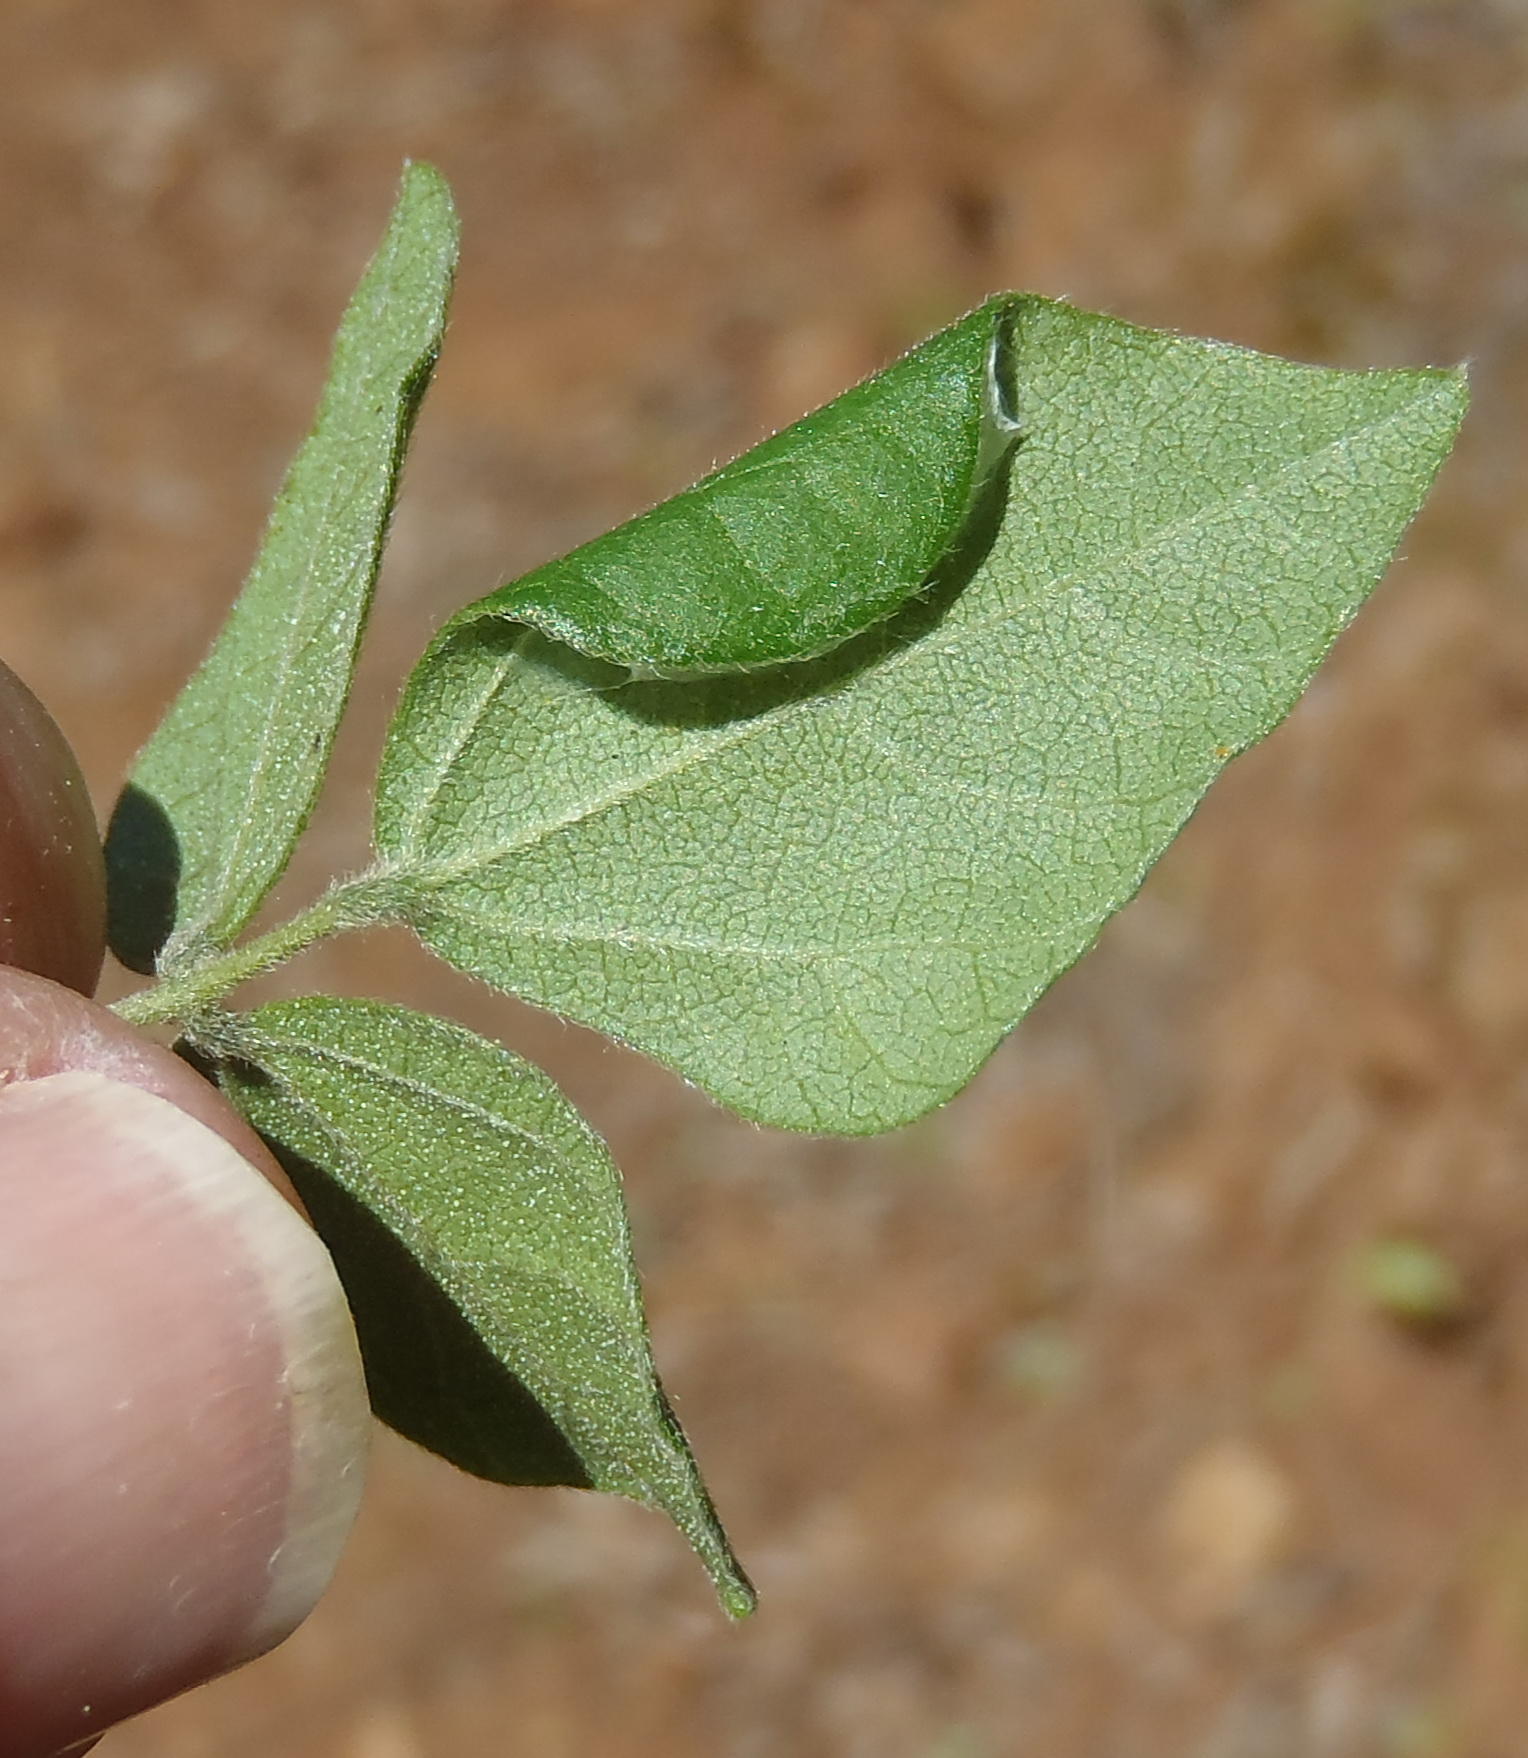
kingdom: Plantae
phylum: Tracheophyta
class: Magnoliopsida
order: Fabales
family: Fabaceae
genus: Rhynchosia
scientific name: Rhynchosia caribaea
